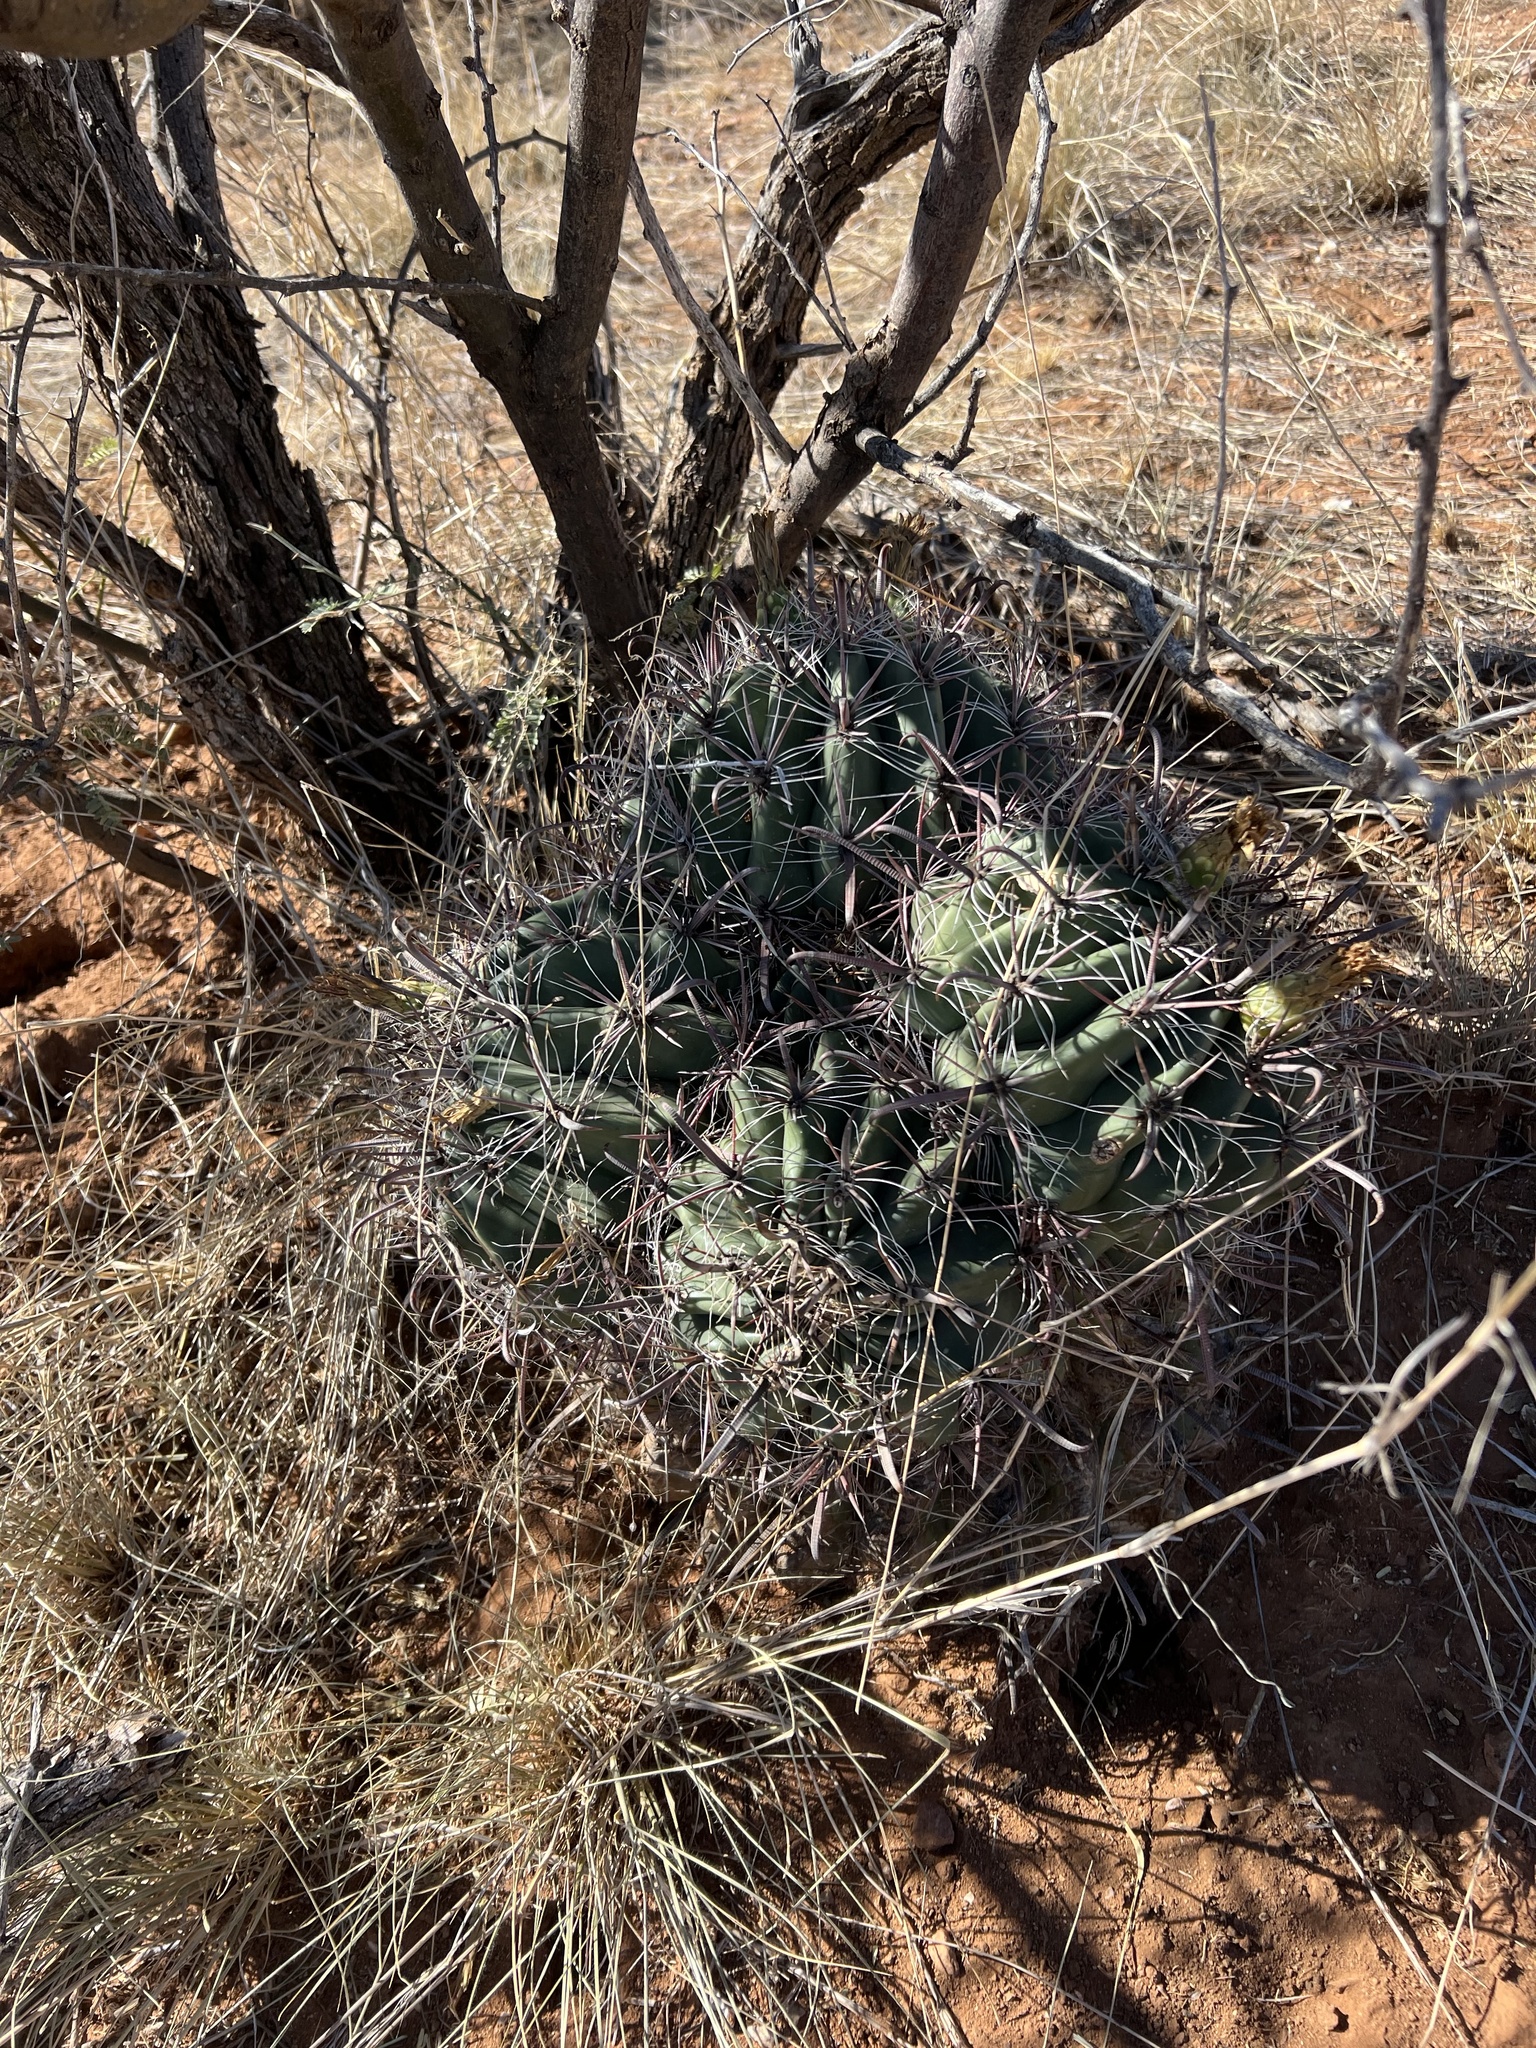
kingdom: Plantae
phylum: Tracheophyta
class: Magnoliopsida
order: Caryophyllales
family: Cactaceae
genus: Ferocactus
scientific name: Ferocactus wislizeni
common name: Candy barrel cactus
